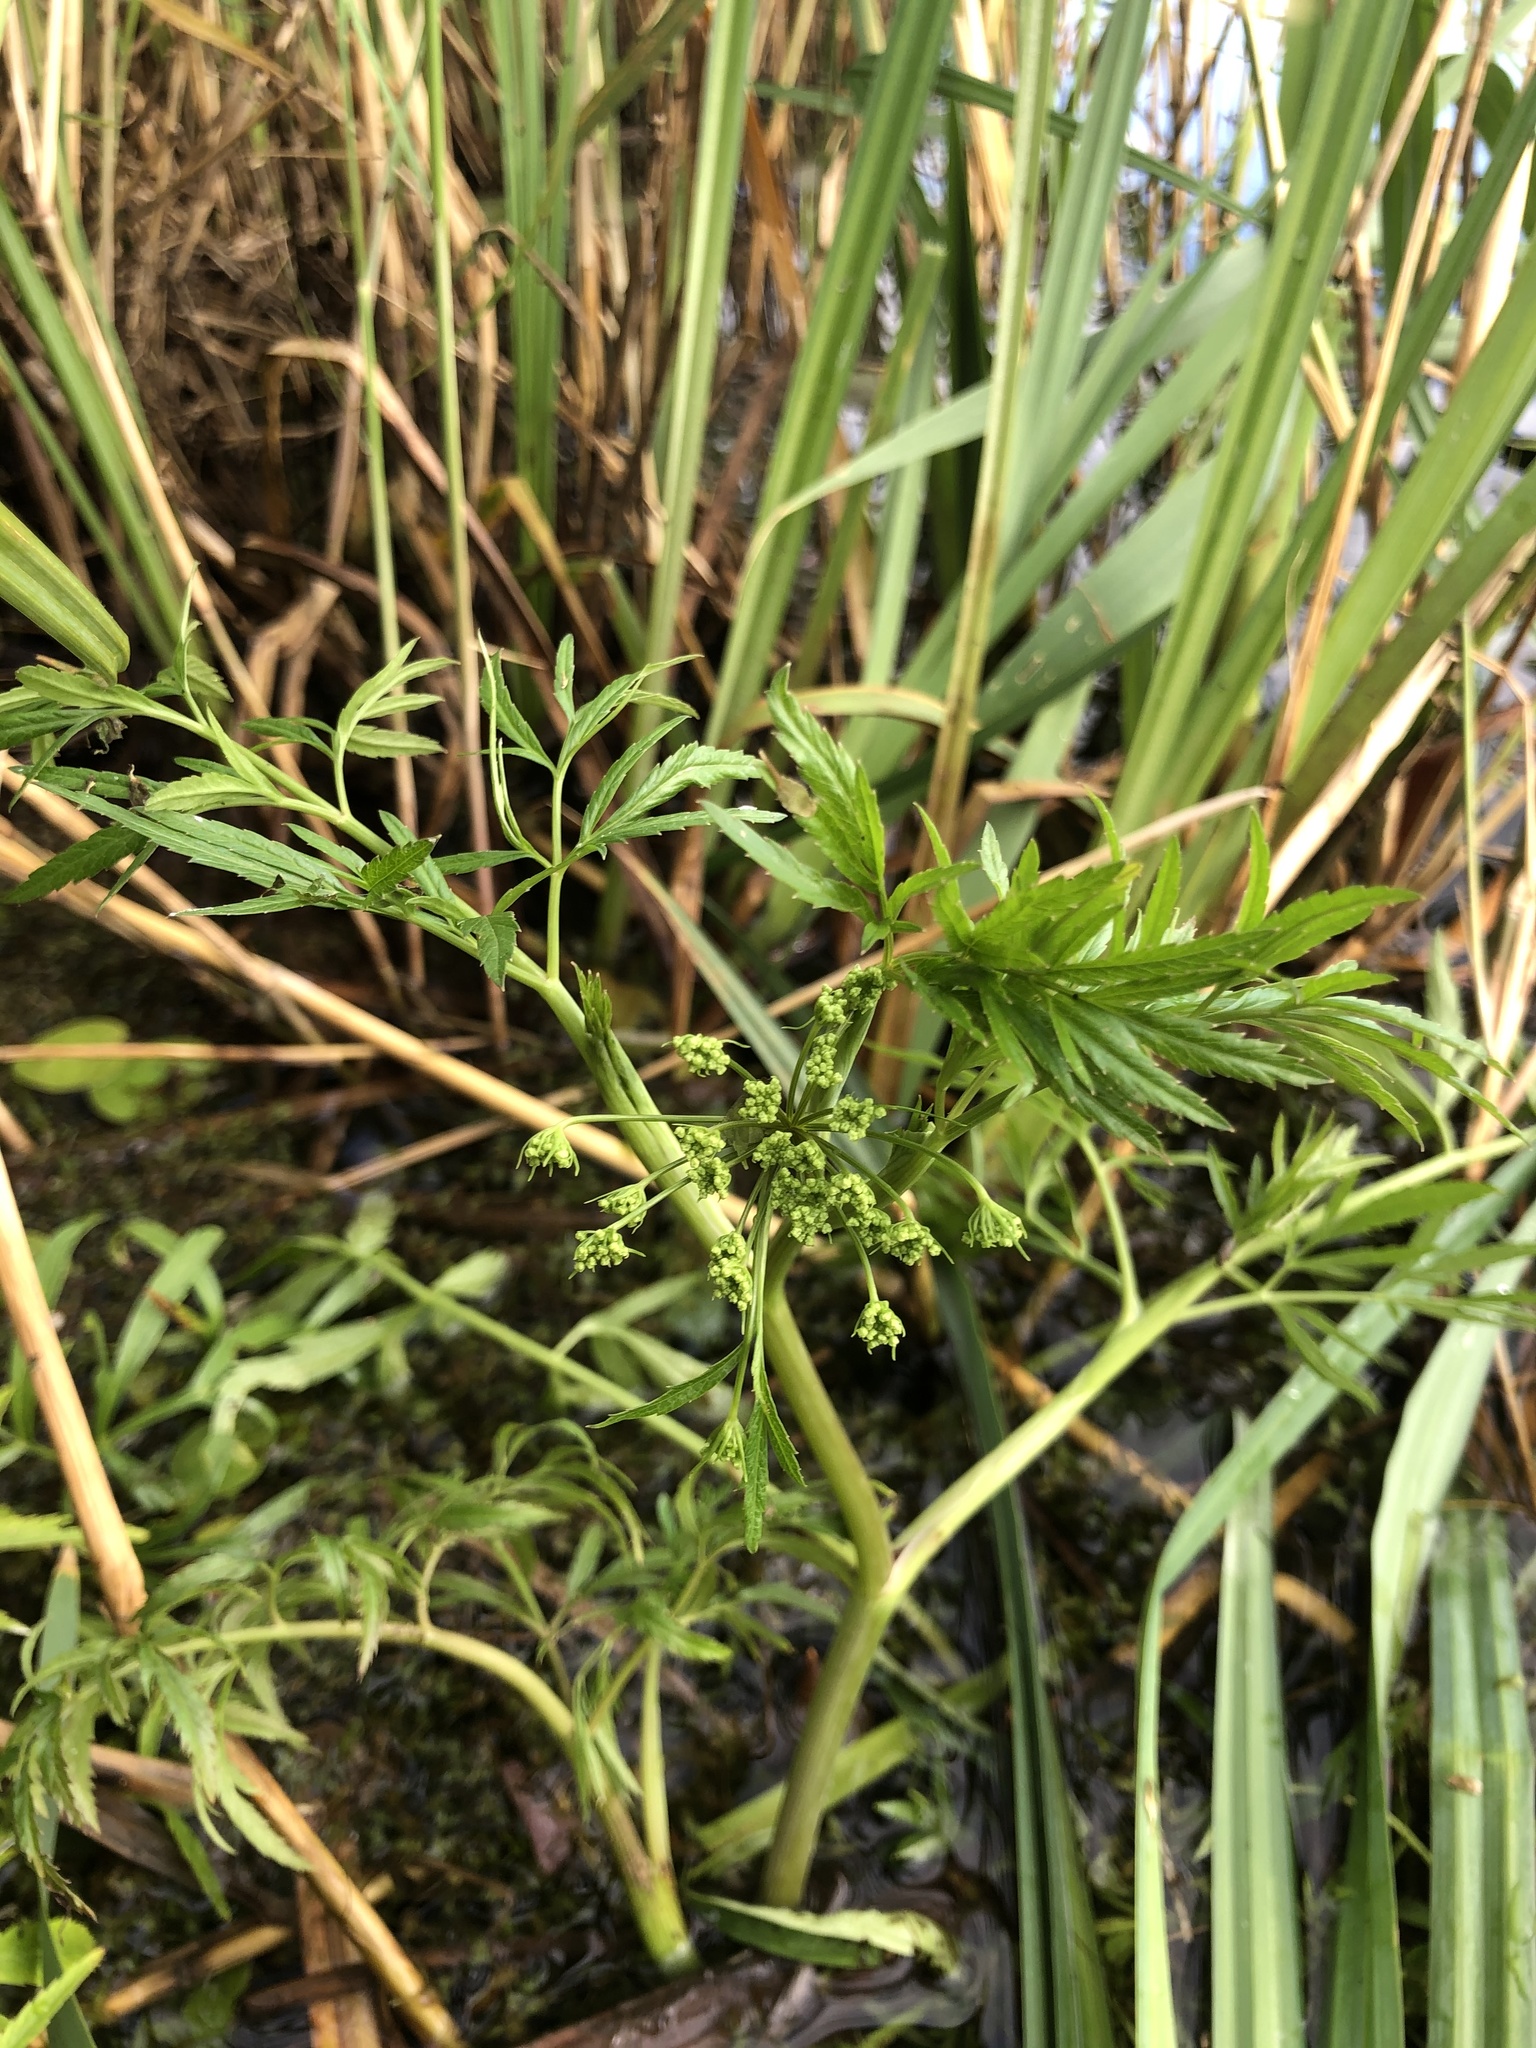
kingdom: Plantae
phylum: Tracheophyta
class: Magnoliopsida
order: Apiales
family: Apiaceae
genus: Cicuta
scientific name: Cicuta virosa
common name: Cowbane
